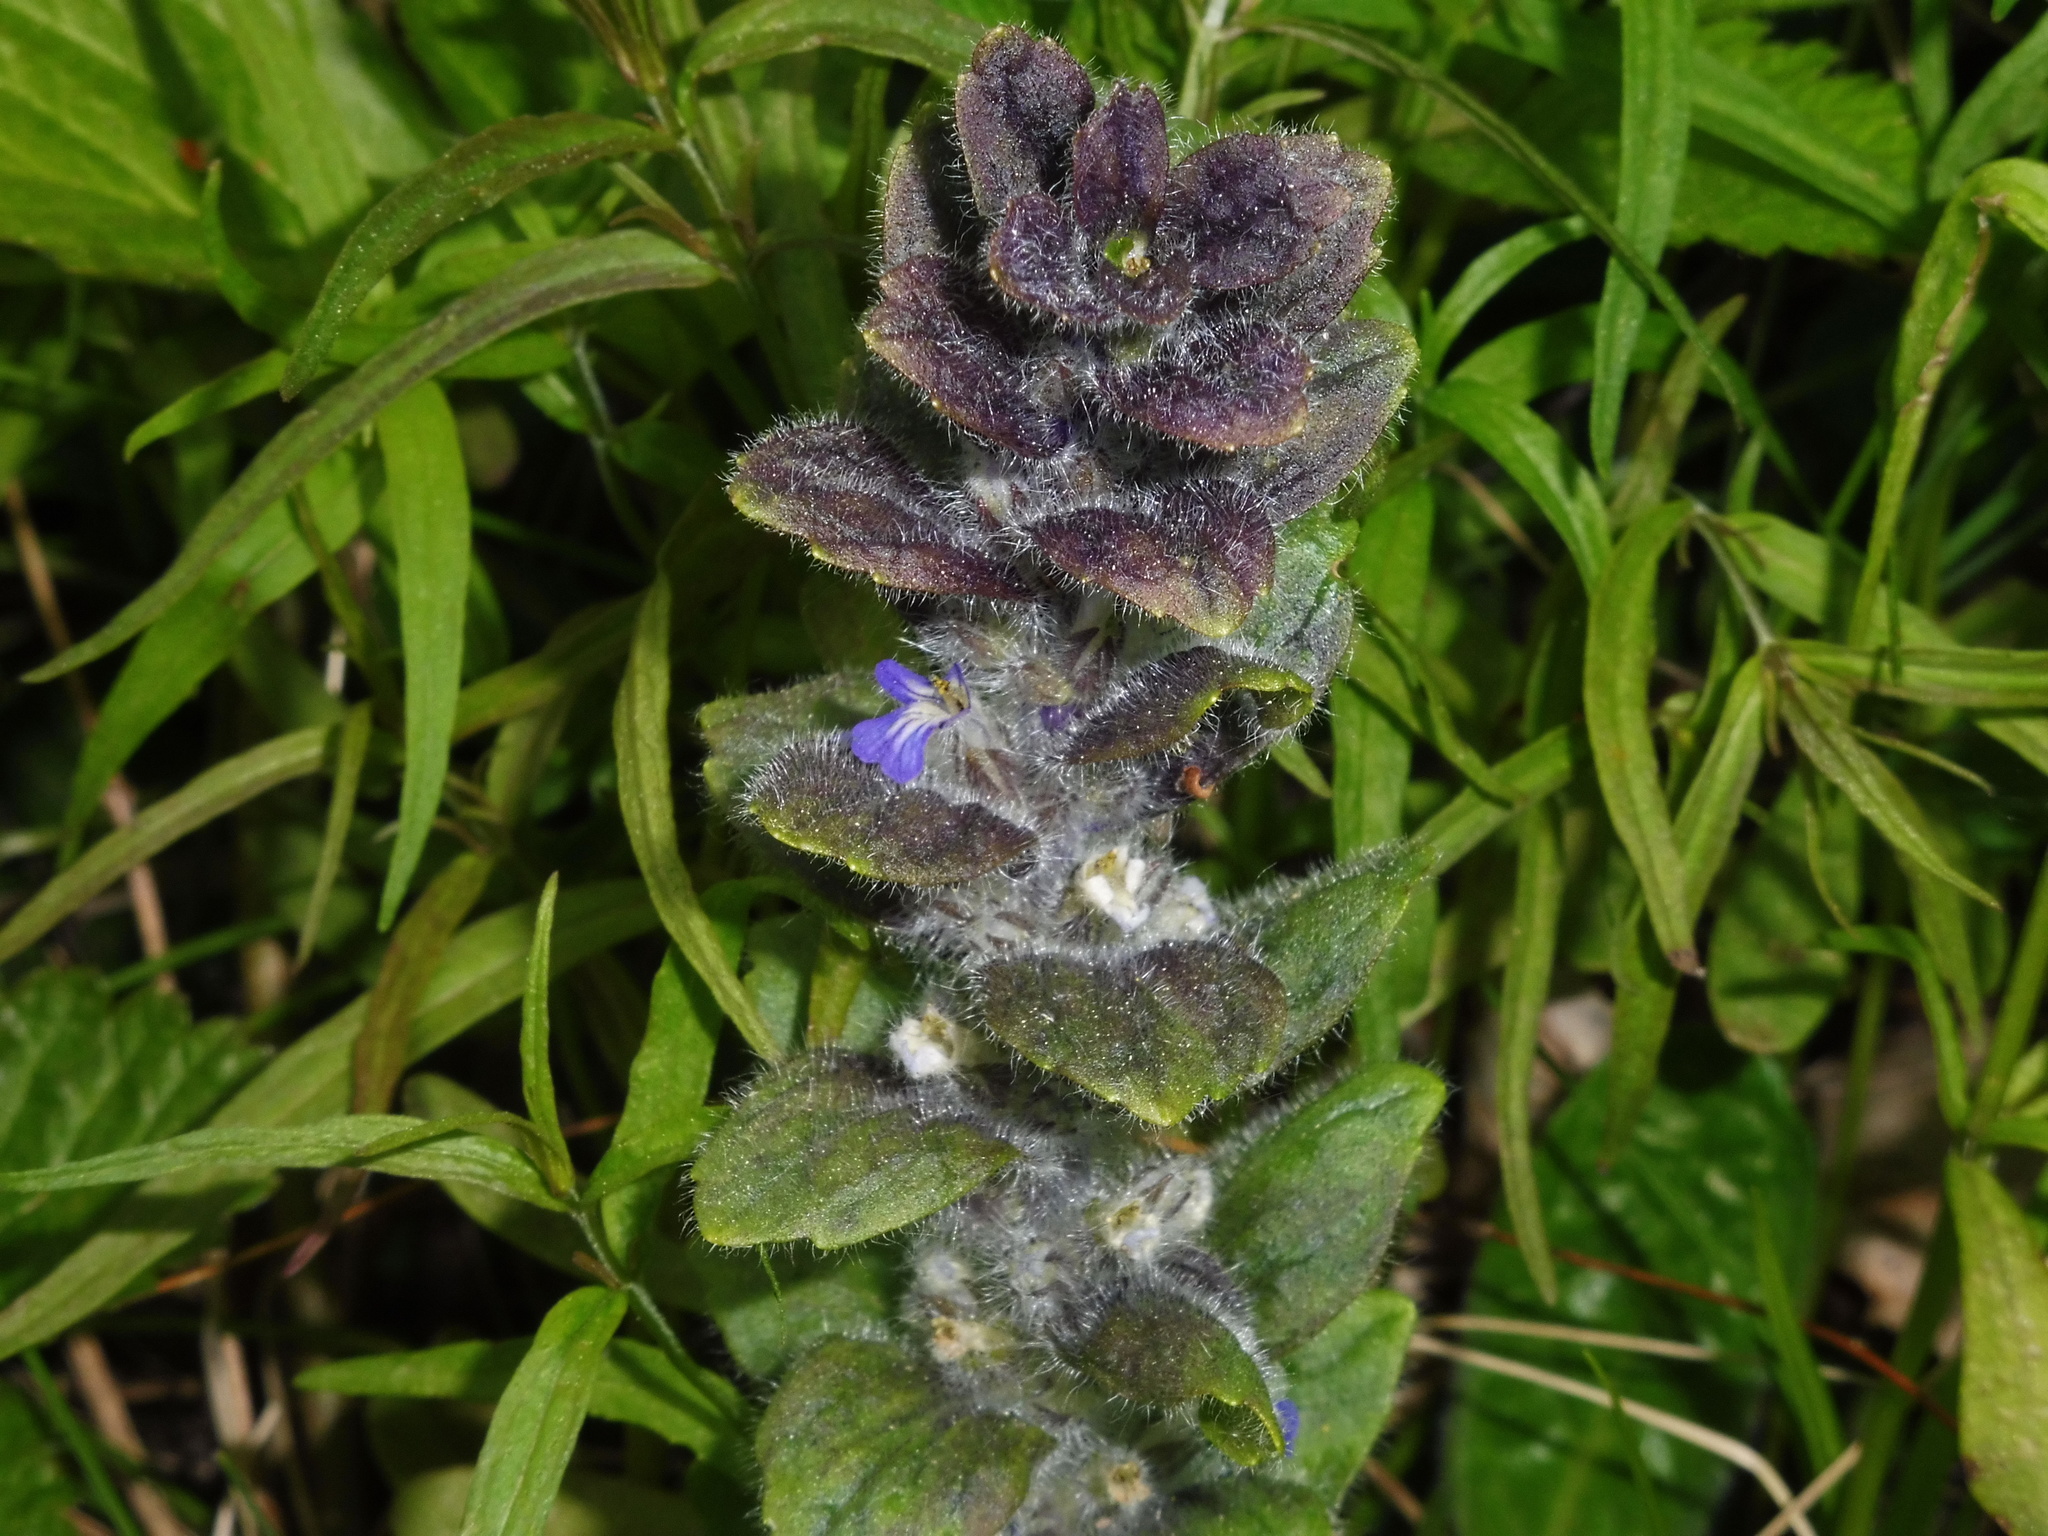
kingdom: Plantae
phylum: Tracheophyta
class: Magnoliopsida
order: Lamiales
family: Lamiaceae
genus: Ajuga
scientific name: Ajuga pyramidalis
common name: Pyramid bugle
